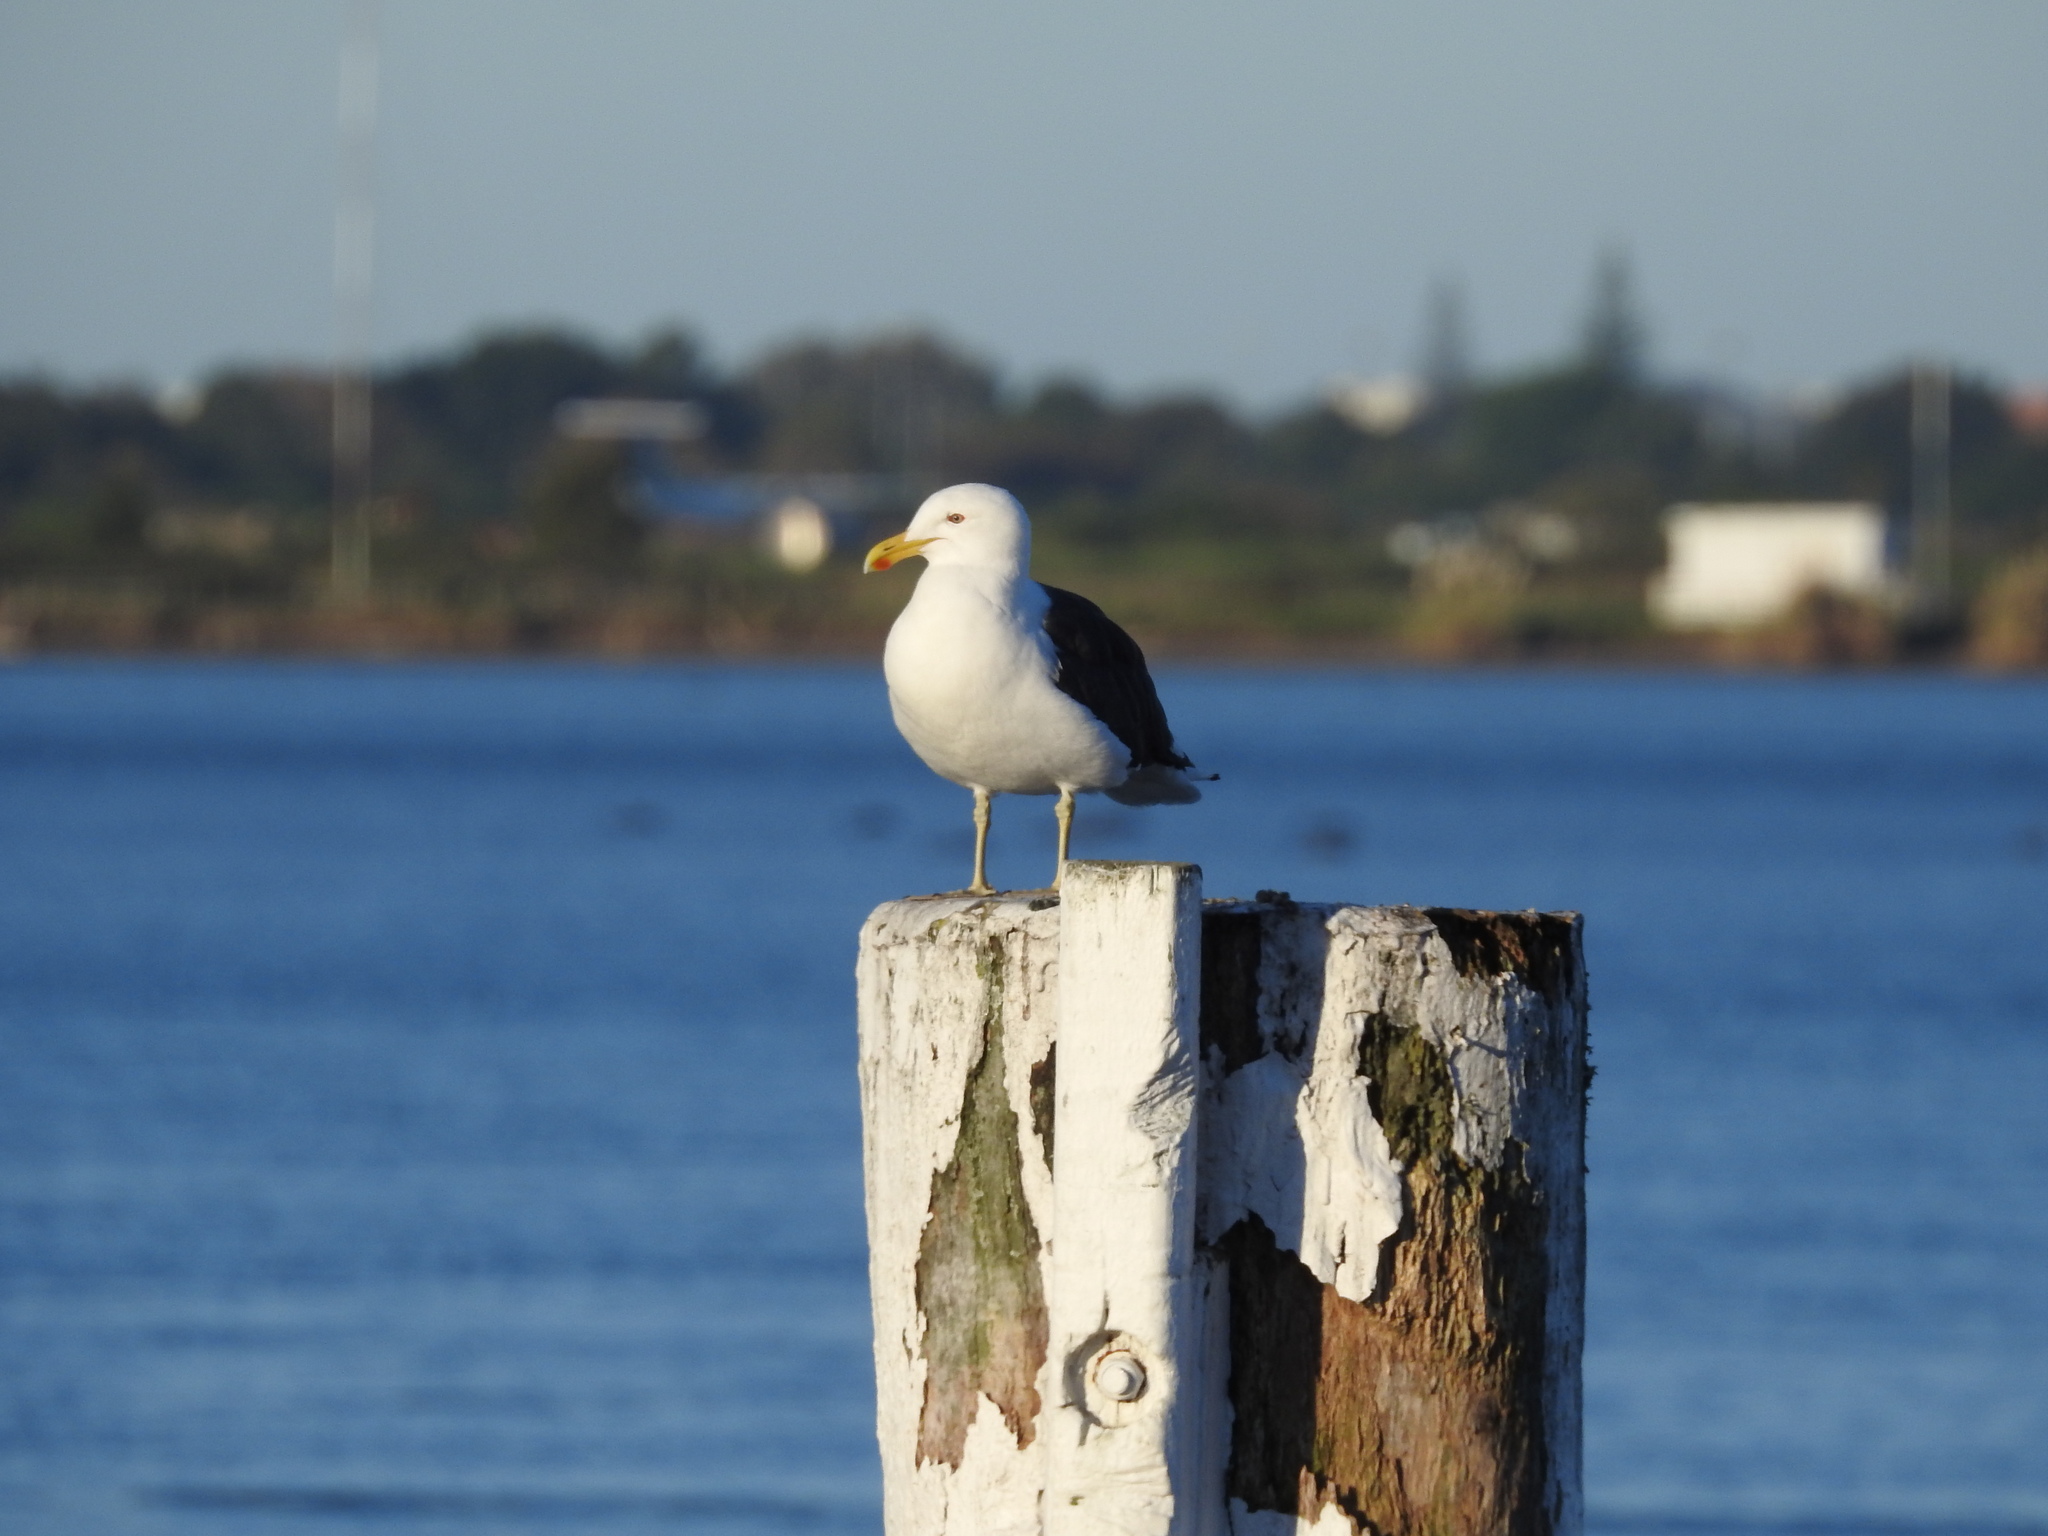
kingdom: Animalia
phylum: Chordata
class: Aves
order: Charadriiformes
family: Laridae
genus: Larus
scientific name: Larus dominicanus
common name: Kelp gull
